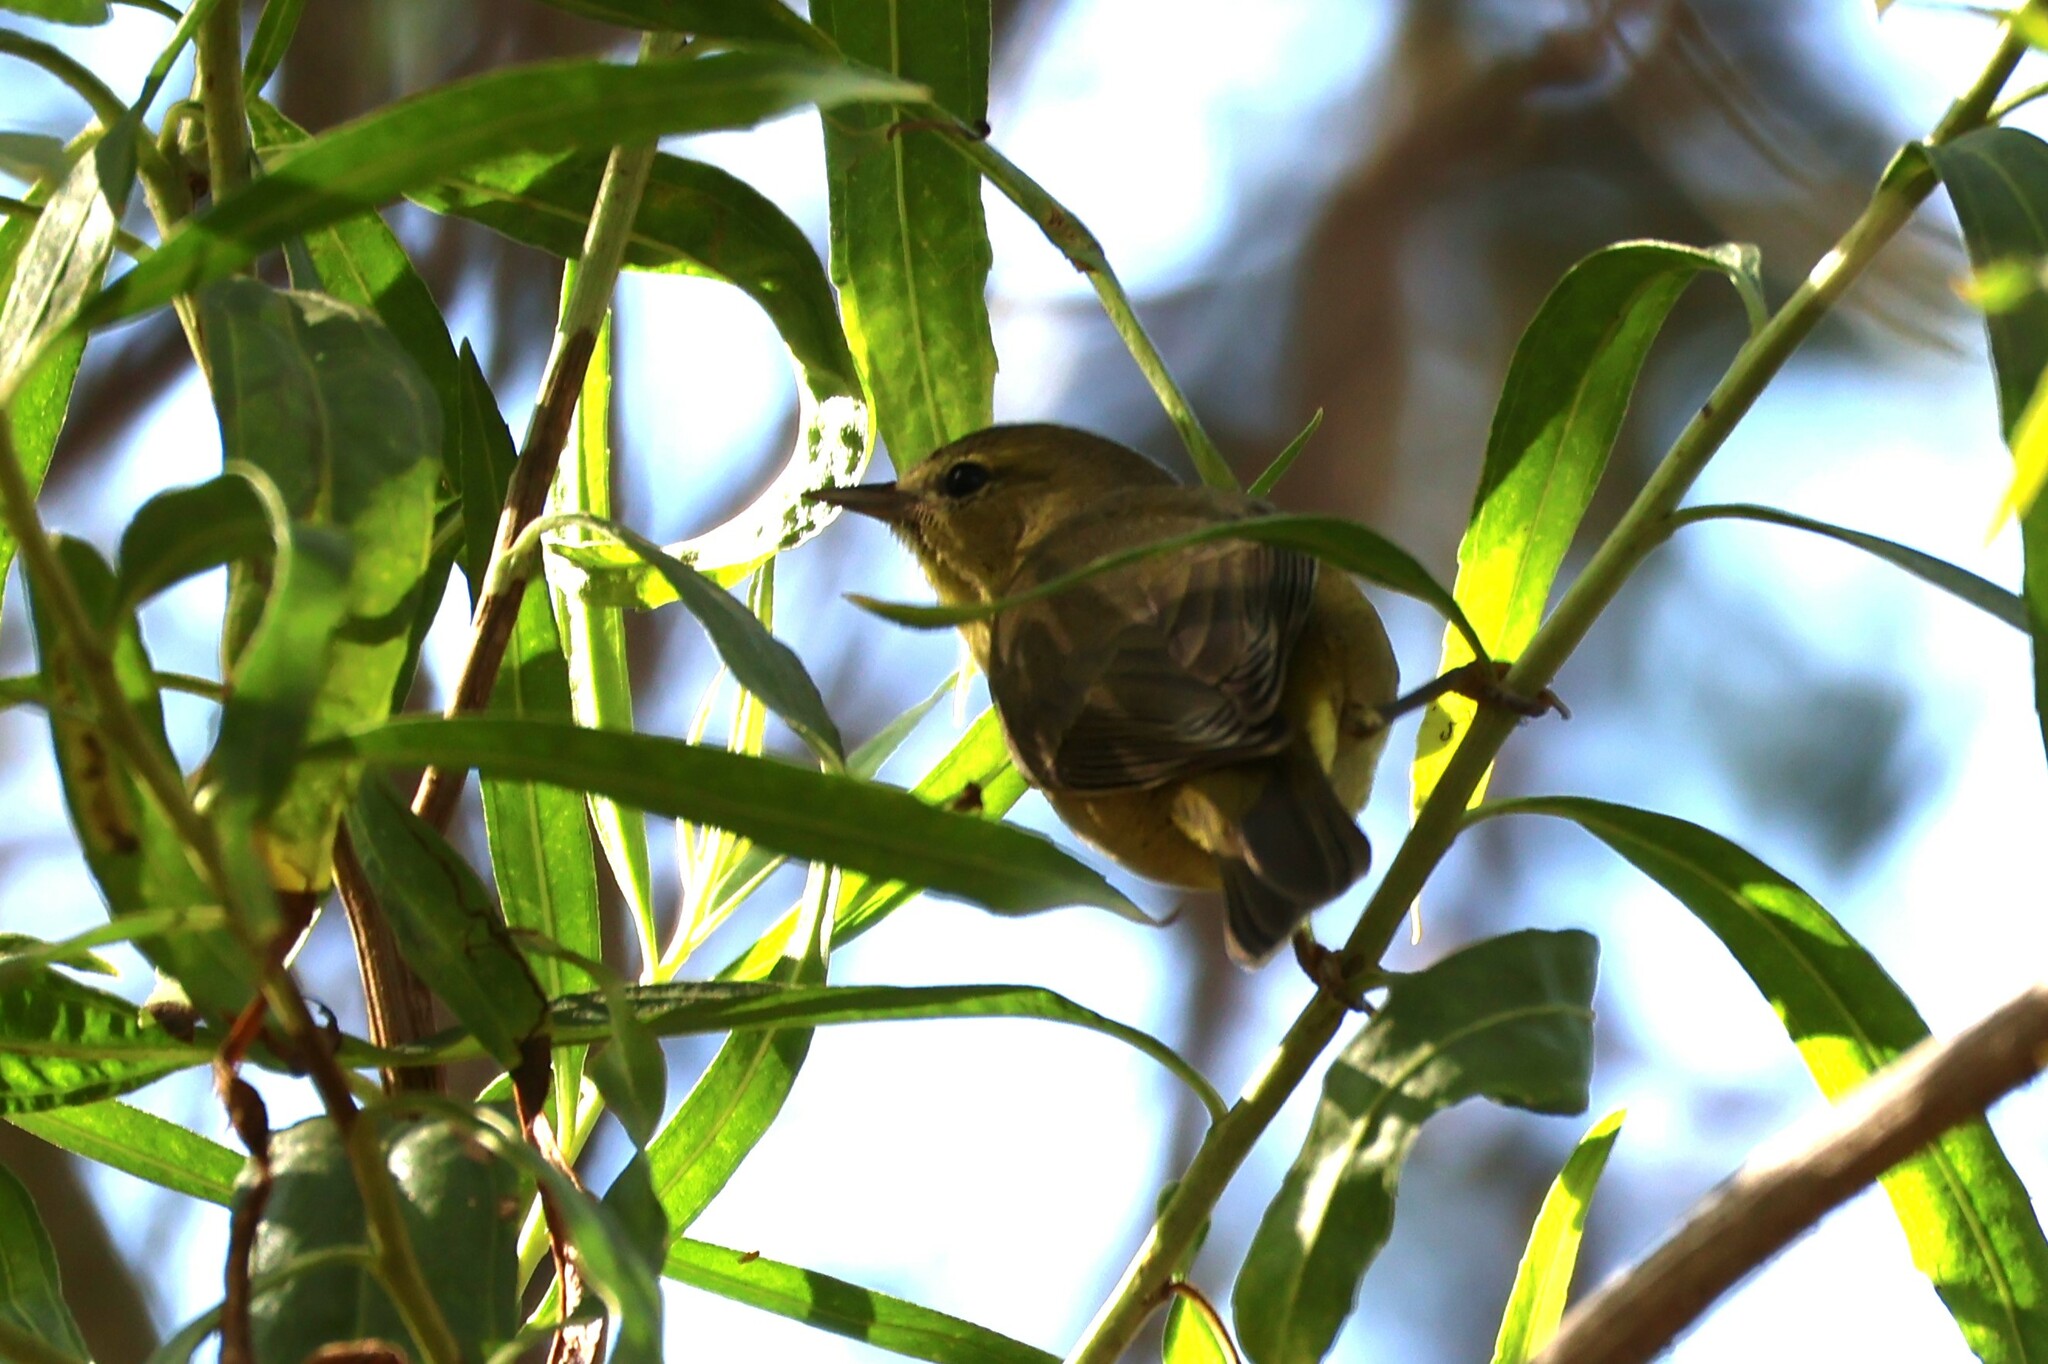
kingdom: Animalia
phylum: Chordata
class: Aves
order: Passeriformes
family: Parulidae
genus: Leiothlypis
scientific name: Leiothlypis celata
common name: Orange-crowned warbler
